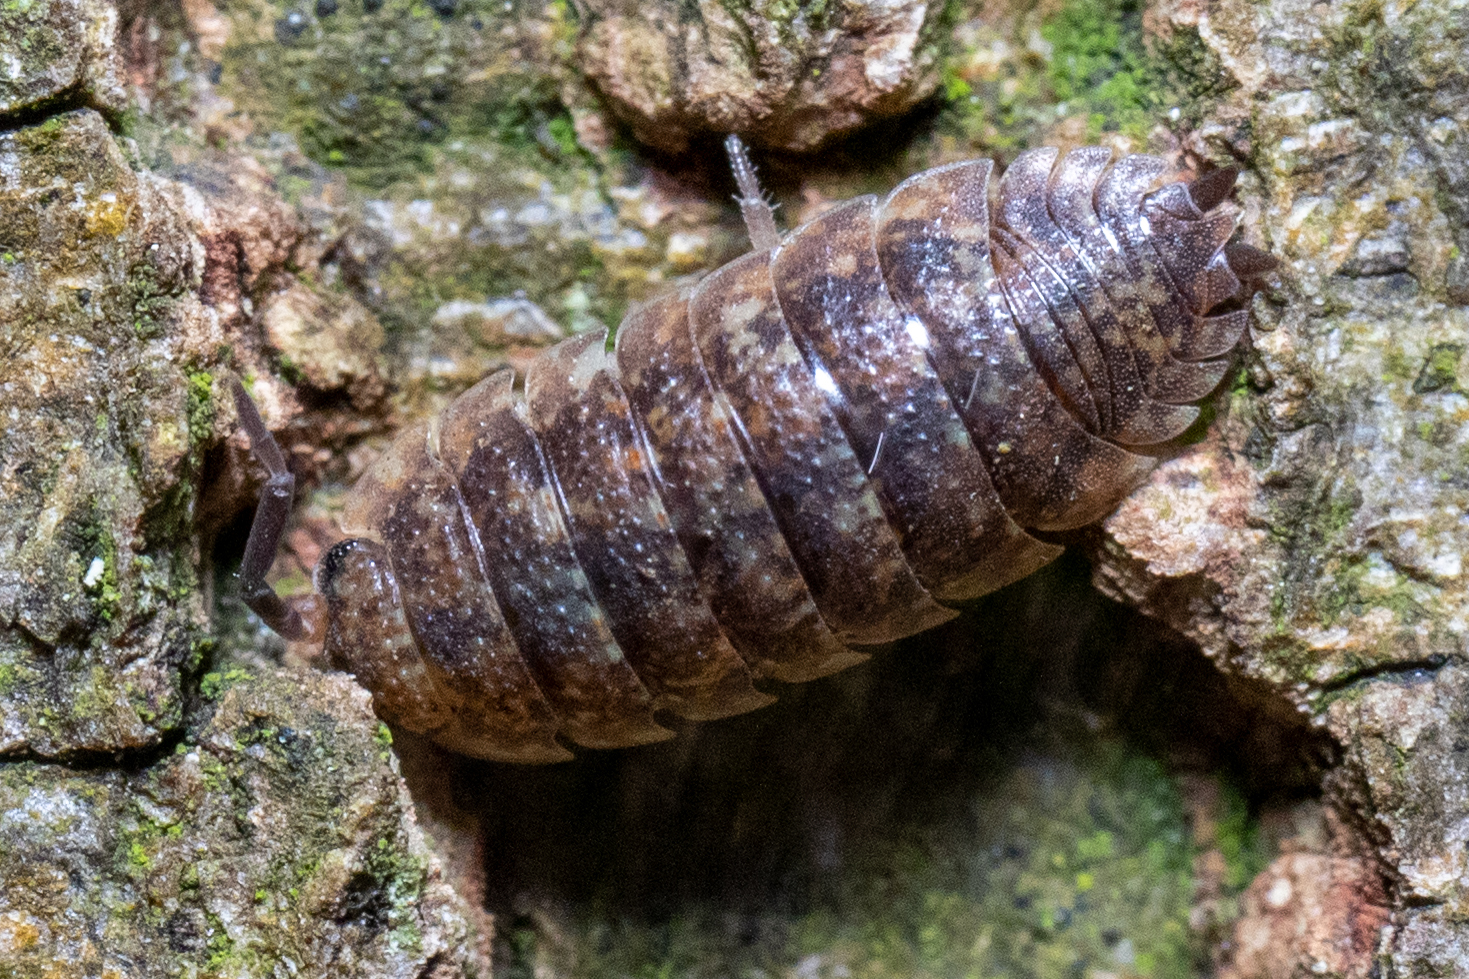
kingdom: Animalia
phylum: Arthropoda
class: Malacostraca
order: Isopoda
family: Porcellionidae
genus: Porcellio
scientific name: Porcellio scaber
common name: Common rough woodlouse
